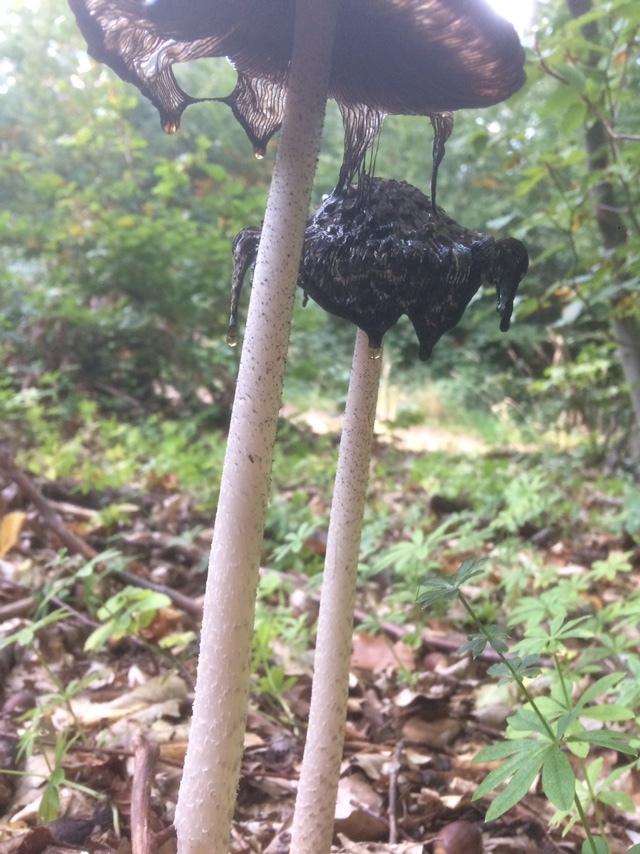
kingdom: Fungi
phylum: Basidiomycota
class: Agaricomycetes
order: Agaricales
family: Psathyrellaceae
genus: Coprinopsis
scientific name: Coprinopsis picacea
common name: Magpie inkcap
